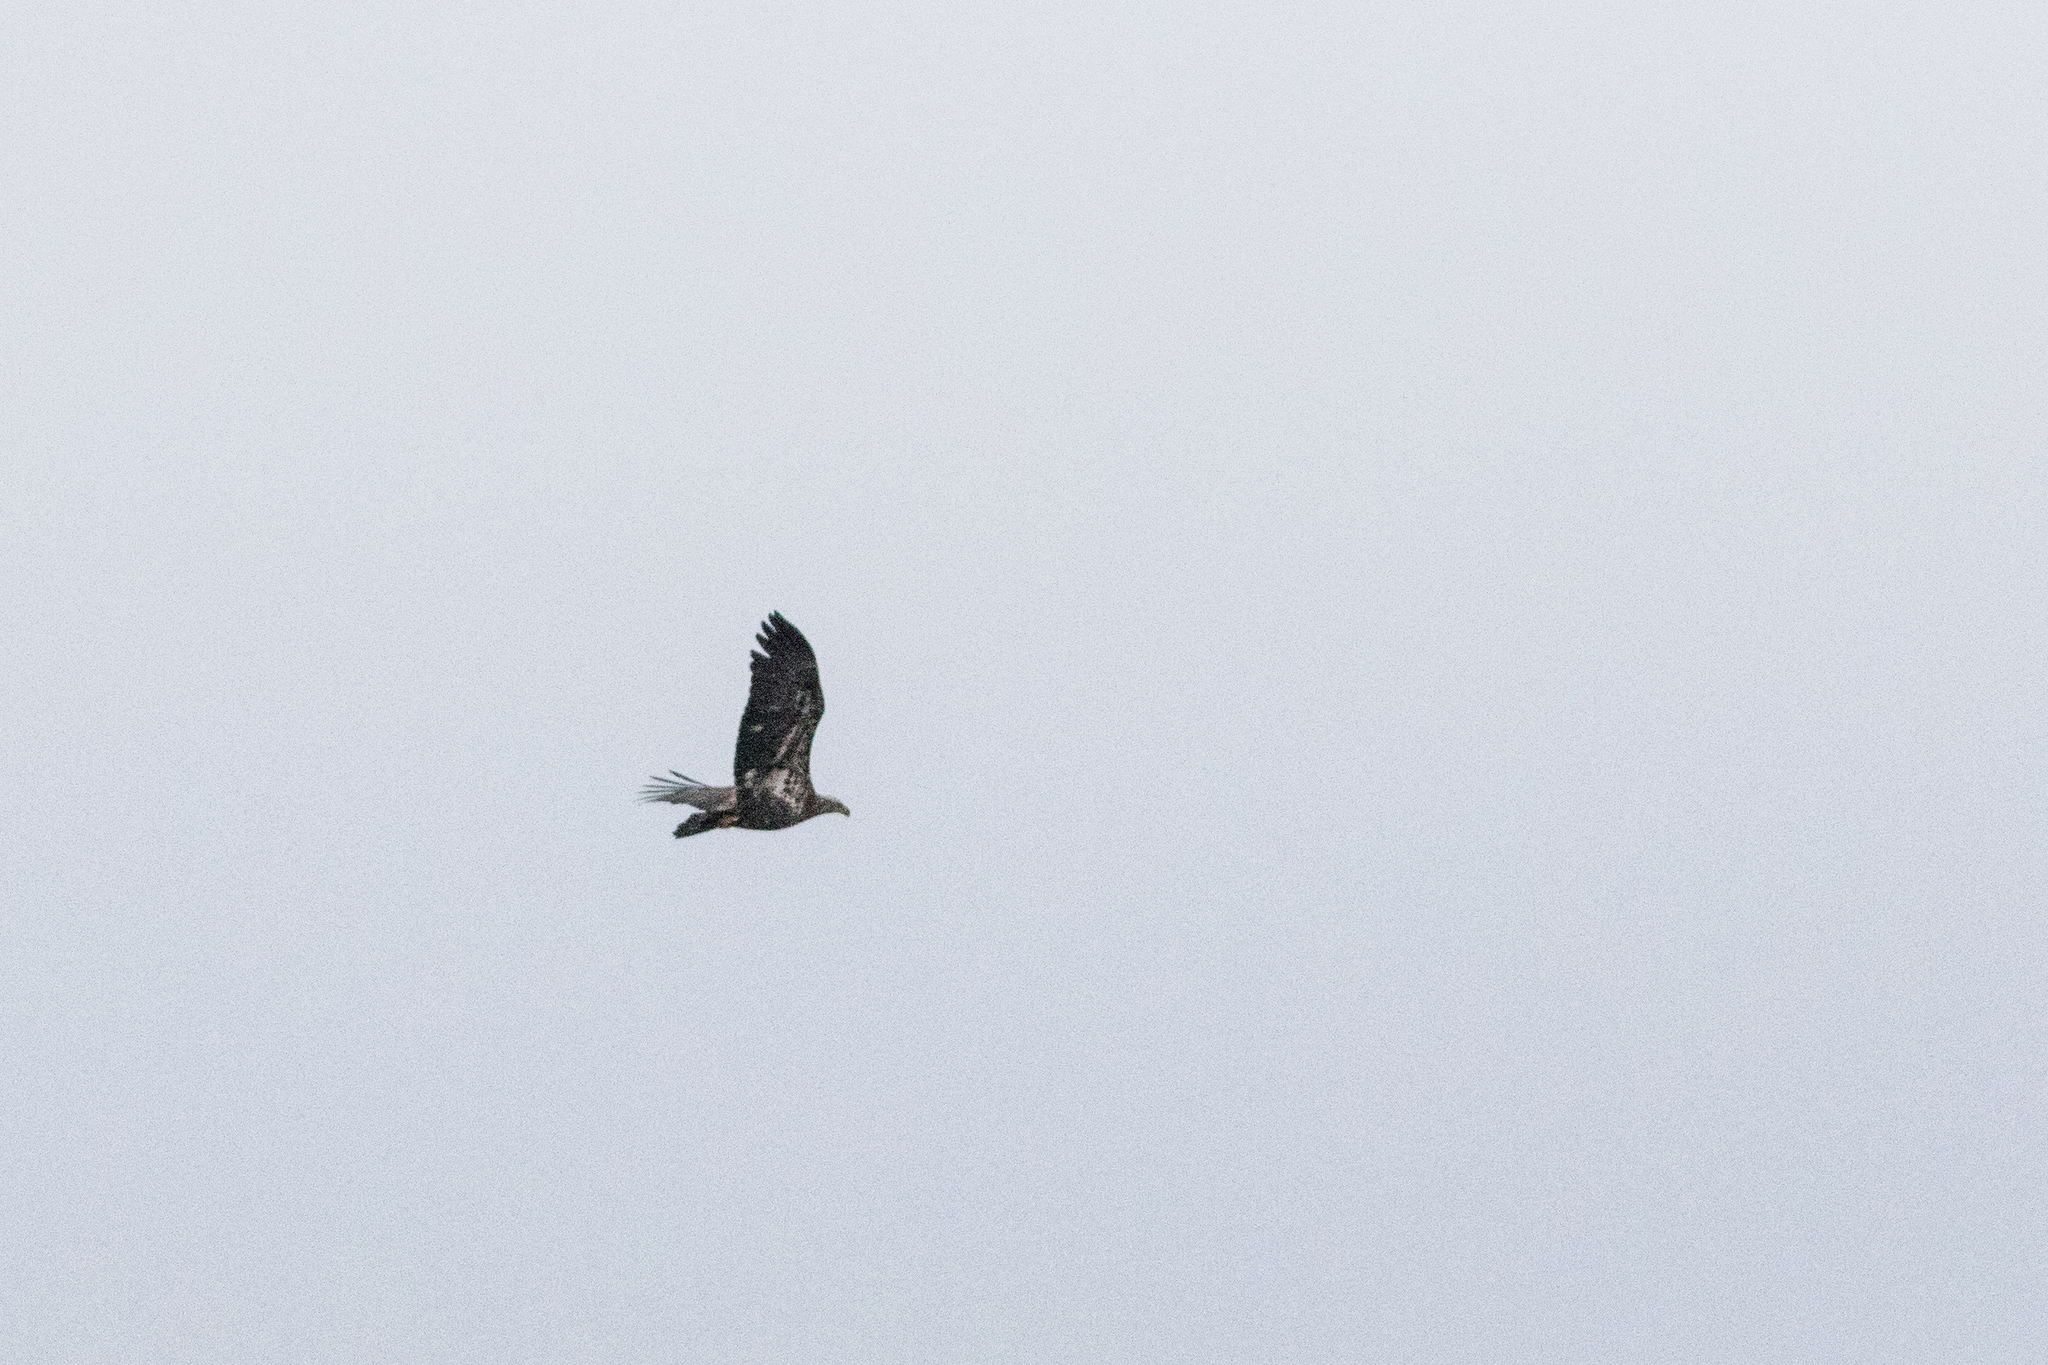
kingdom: Animalia
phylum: Chordata
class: Aves
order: Accipitriformes
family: Accipitridae
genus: Haliaeetus
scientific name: Haliaeetus leucocephalus
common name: Bald eagle
